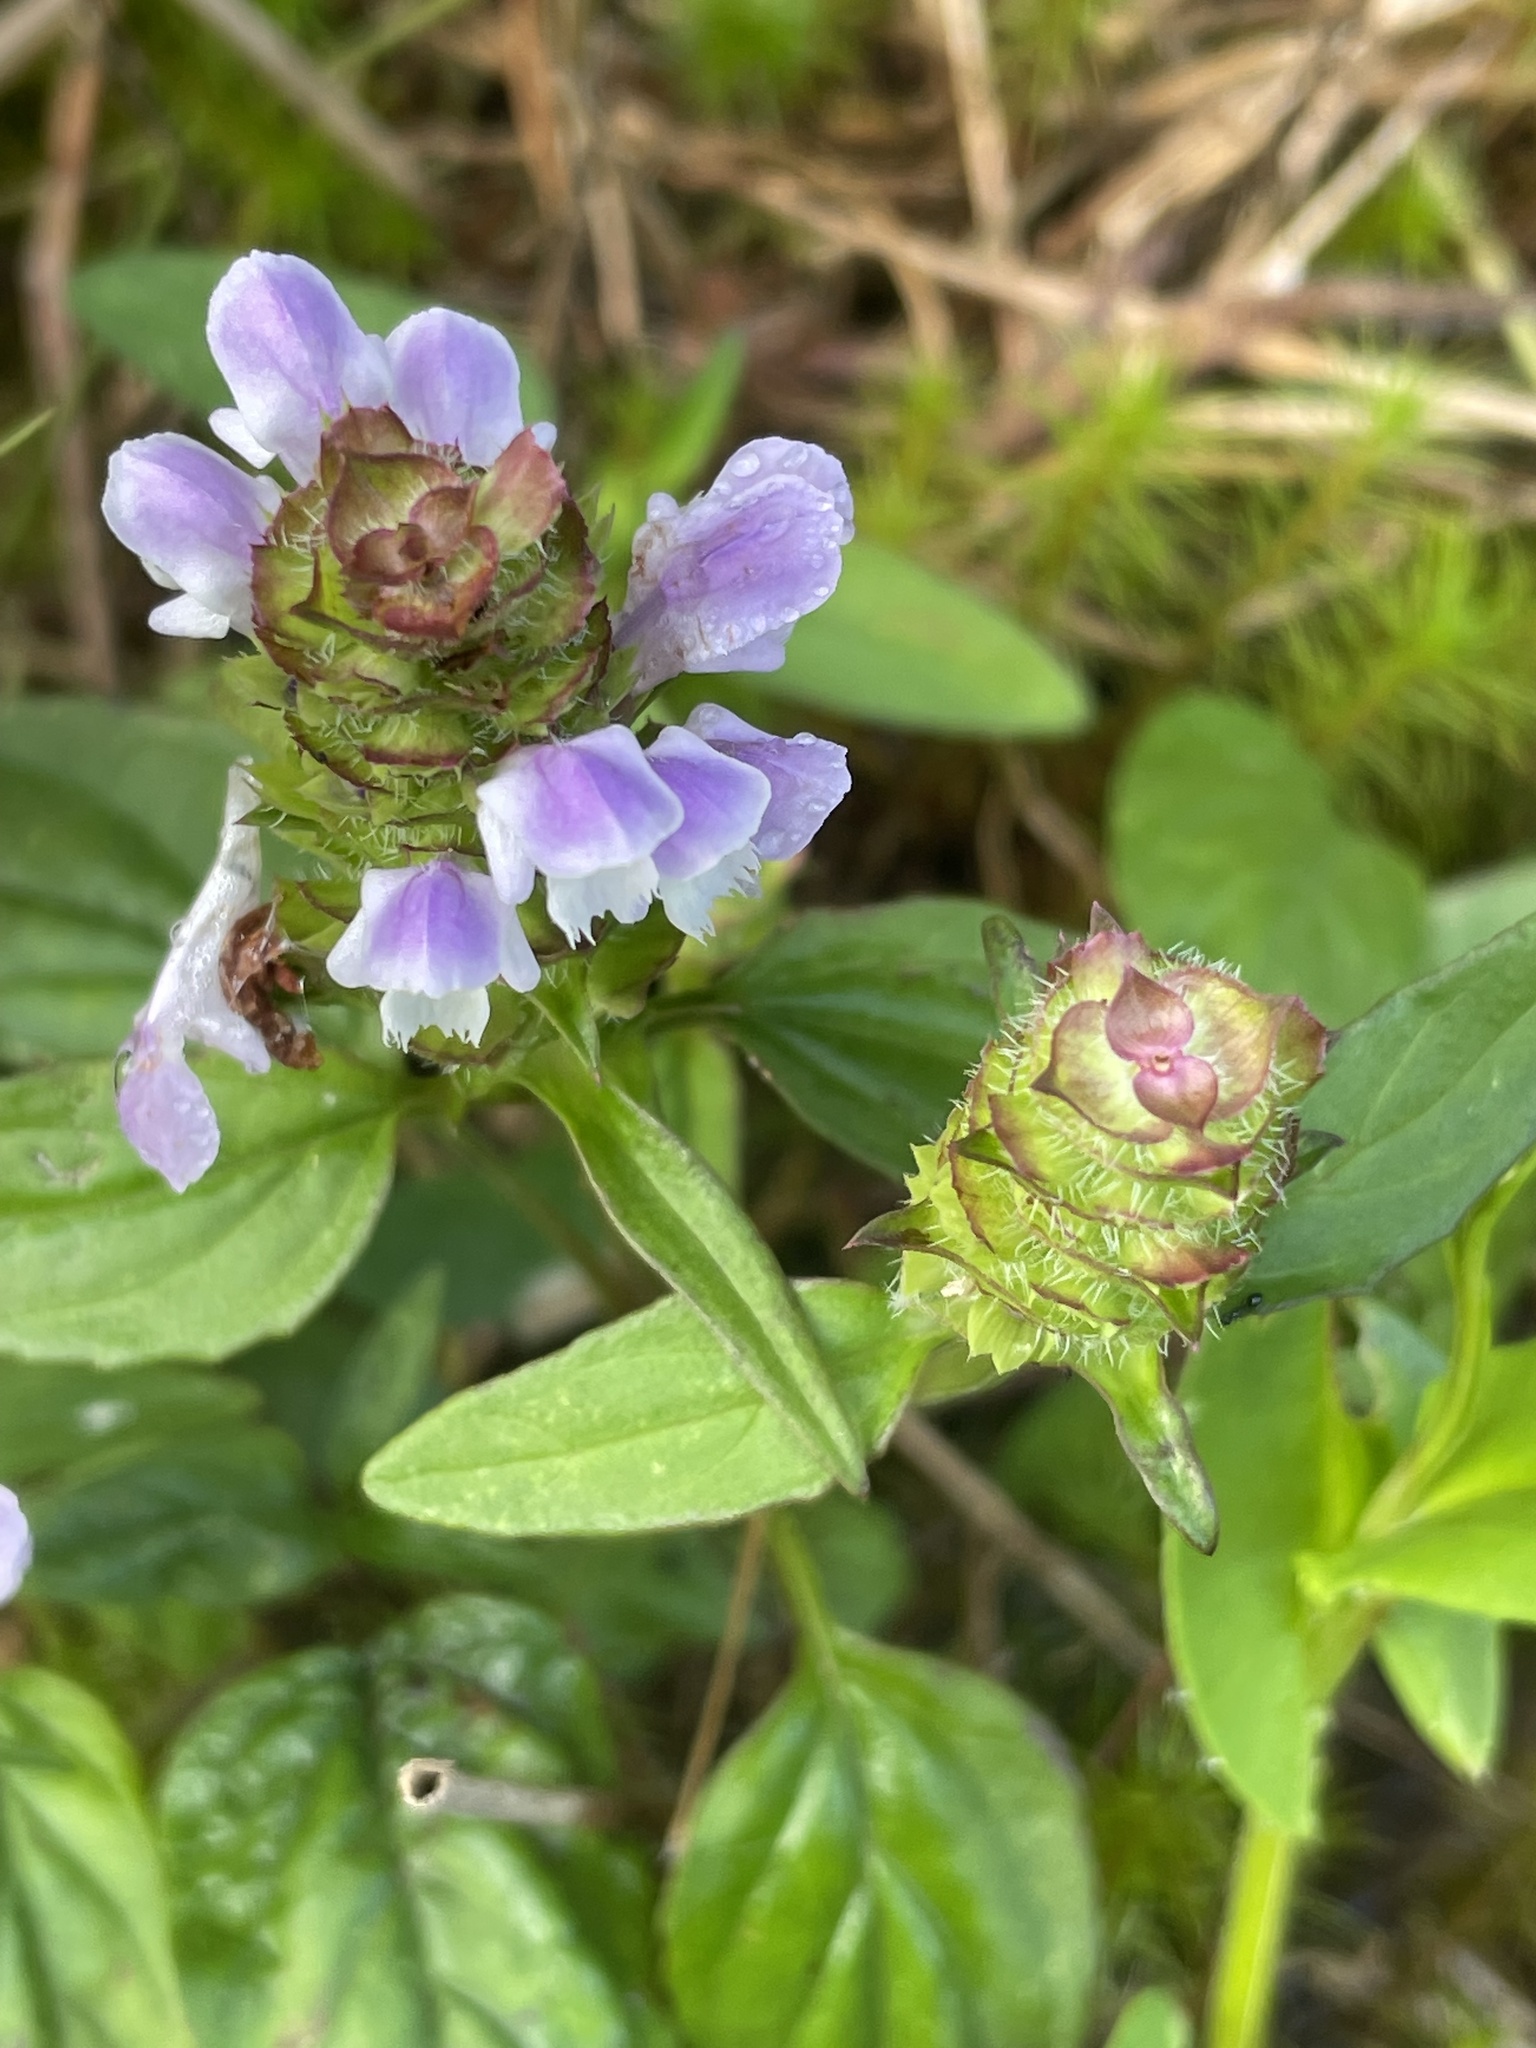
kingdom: Plantae
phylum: Tracheophyta
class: Magnoliopsida
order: Lamiales
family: Lamiaceae
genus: Prunella
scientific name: Prunella vulgaris
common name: Heal-all
